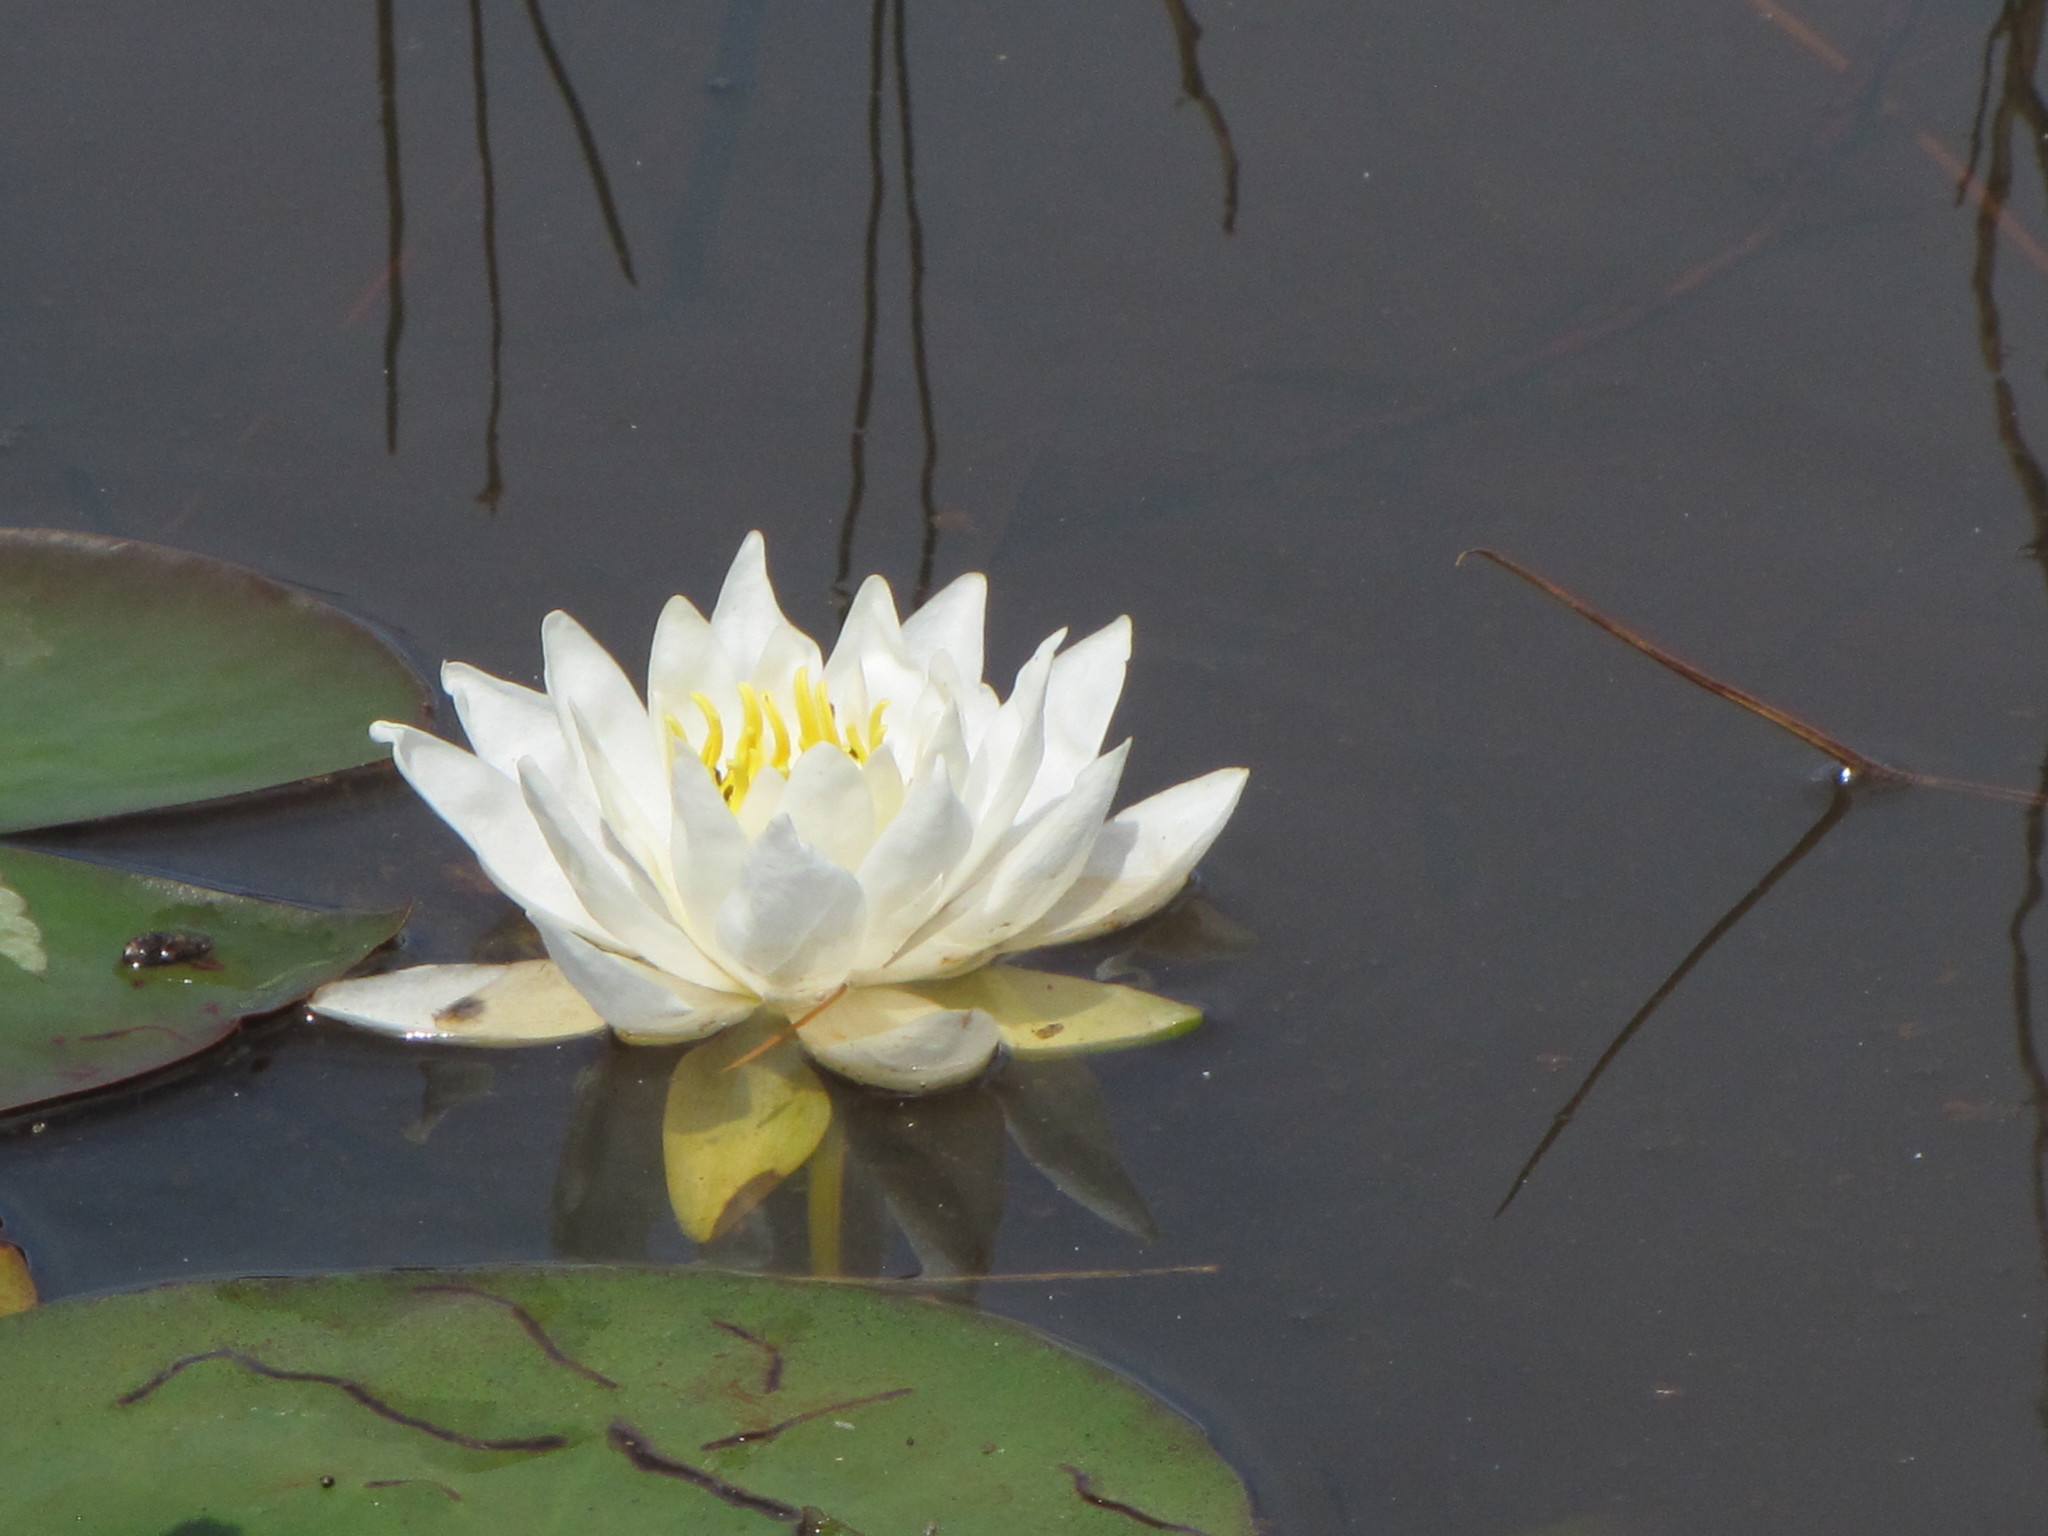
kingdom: Plantae
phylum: Tracheophyta
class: Magnoliopsida
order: Nymphaeales
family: Nymphaeaceae
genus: Nymphaea
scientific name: Nymphaea odorata
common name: Fragrant water-lily
